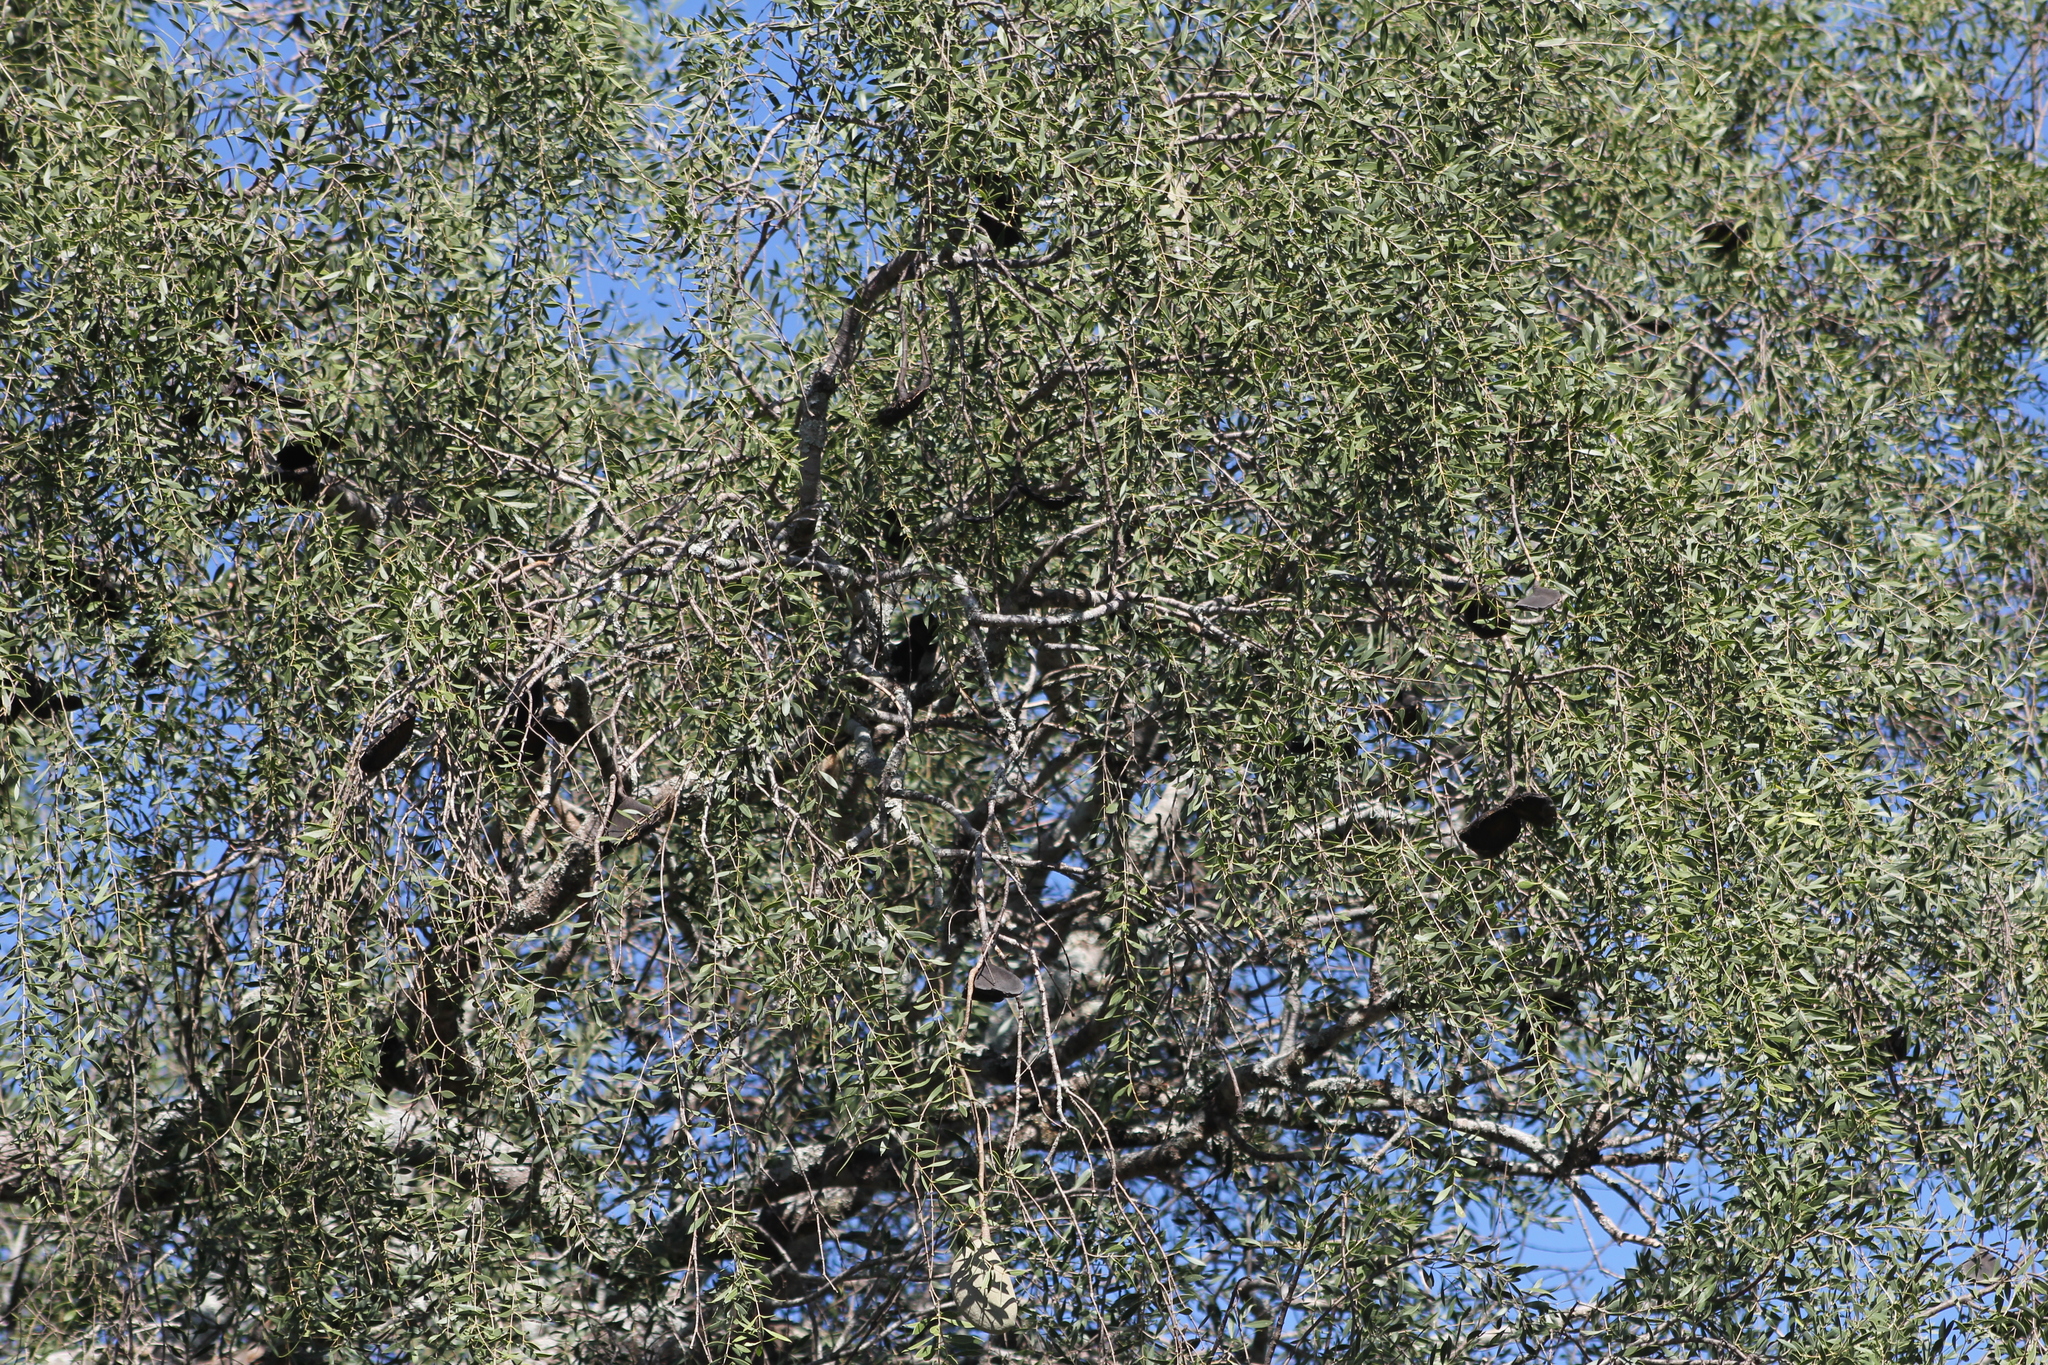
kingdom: Plantae
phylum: Tracheophyta
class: Magnoliopsida
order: Gentianales
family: Apocynaceae
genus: Aspidosperma
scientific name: Aspidosperma quebracho-blanco
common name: White quebracho
